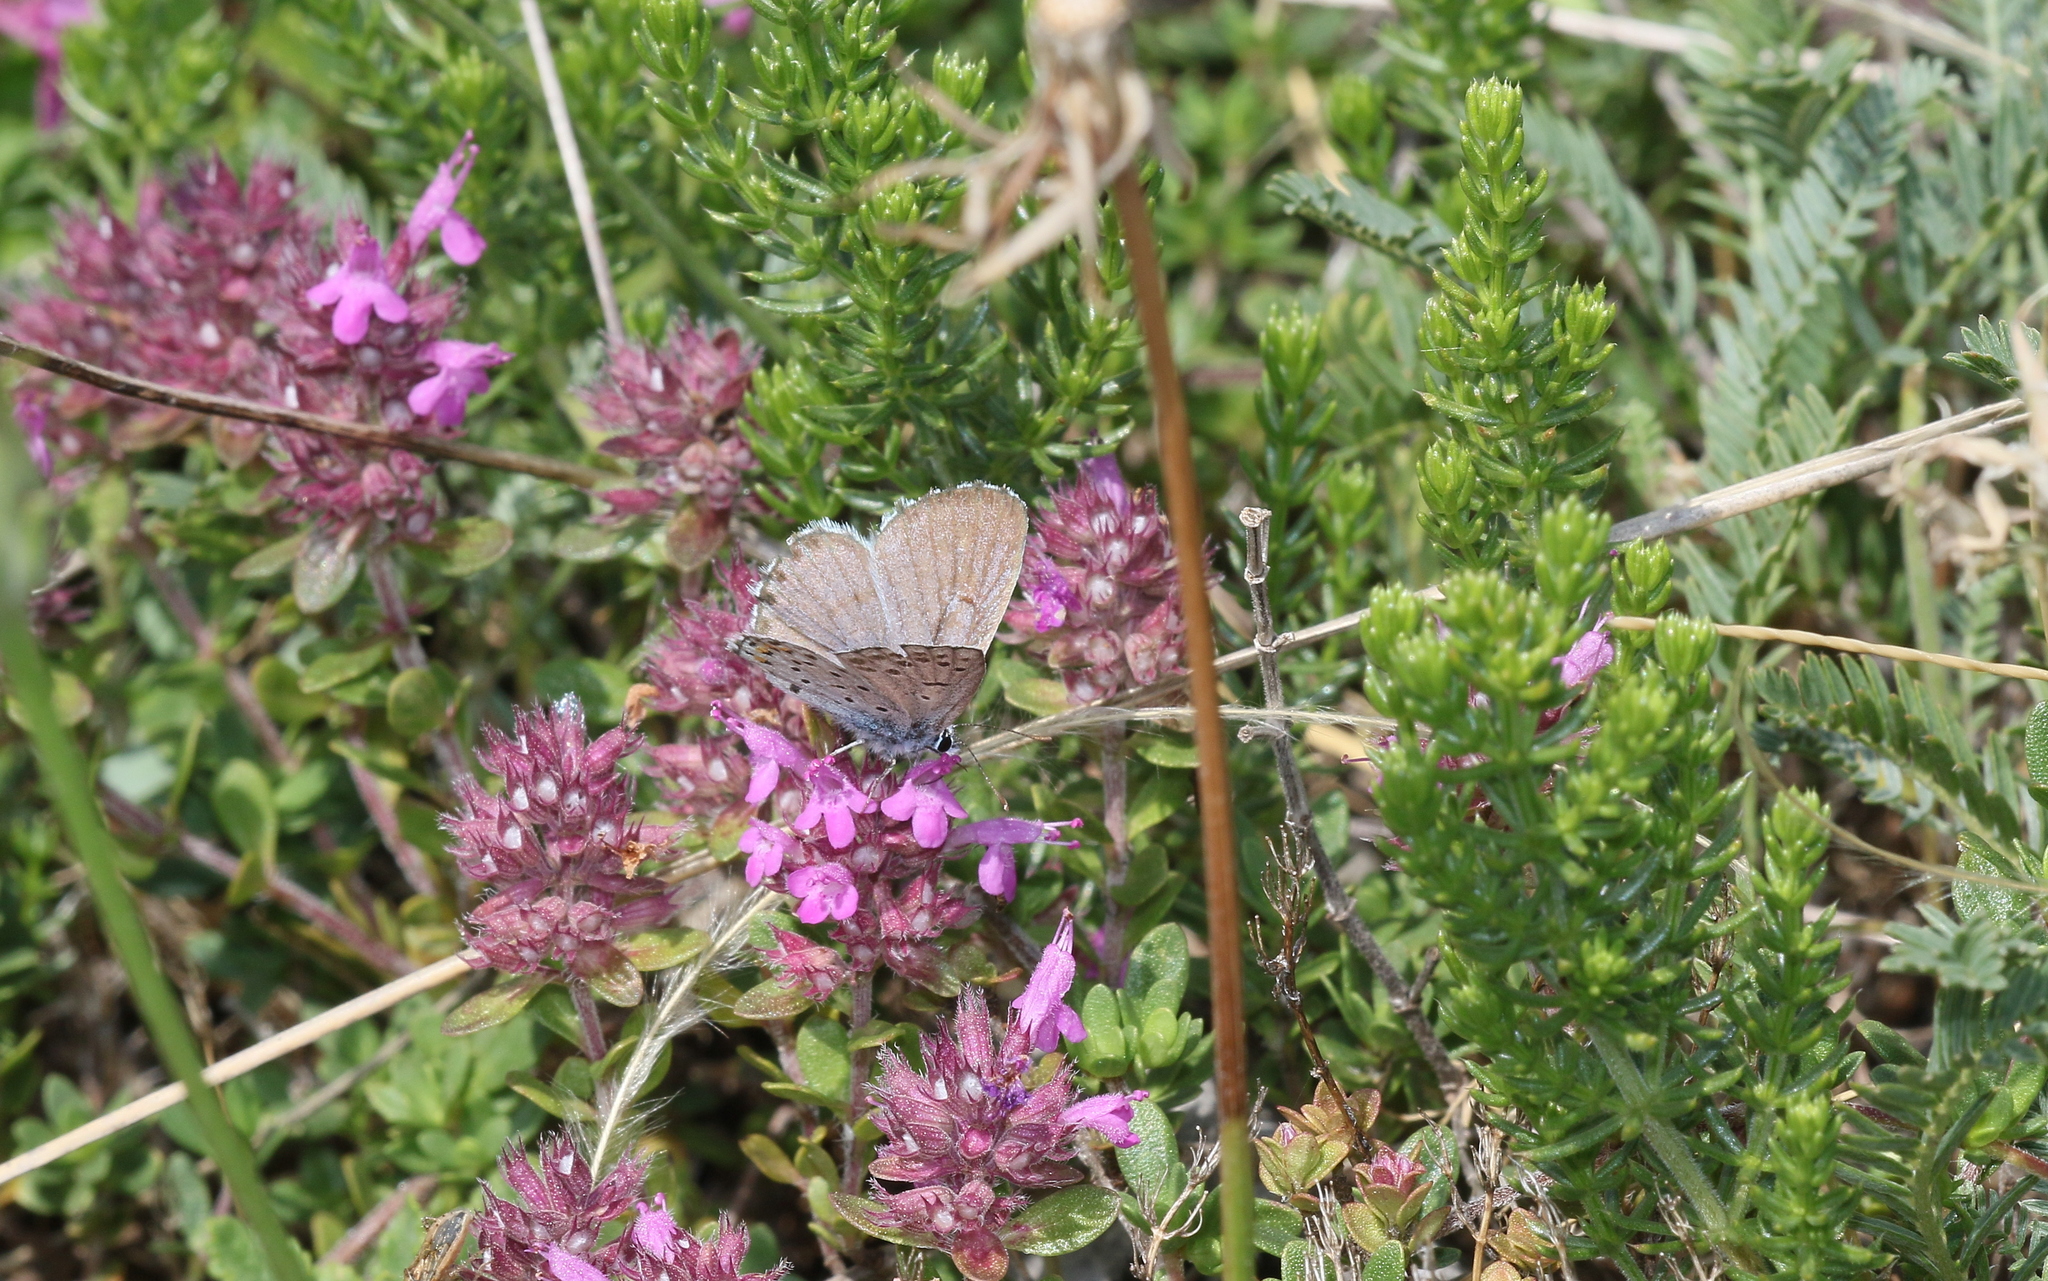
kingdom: Animalia
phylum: Arthropoda
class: Insecta
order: Lepidoptera
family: Lycaenidae
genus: Pseudophilotes
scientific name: Pseudophilotes baton
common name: Baton blue
